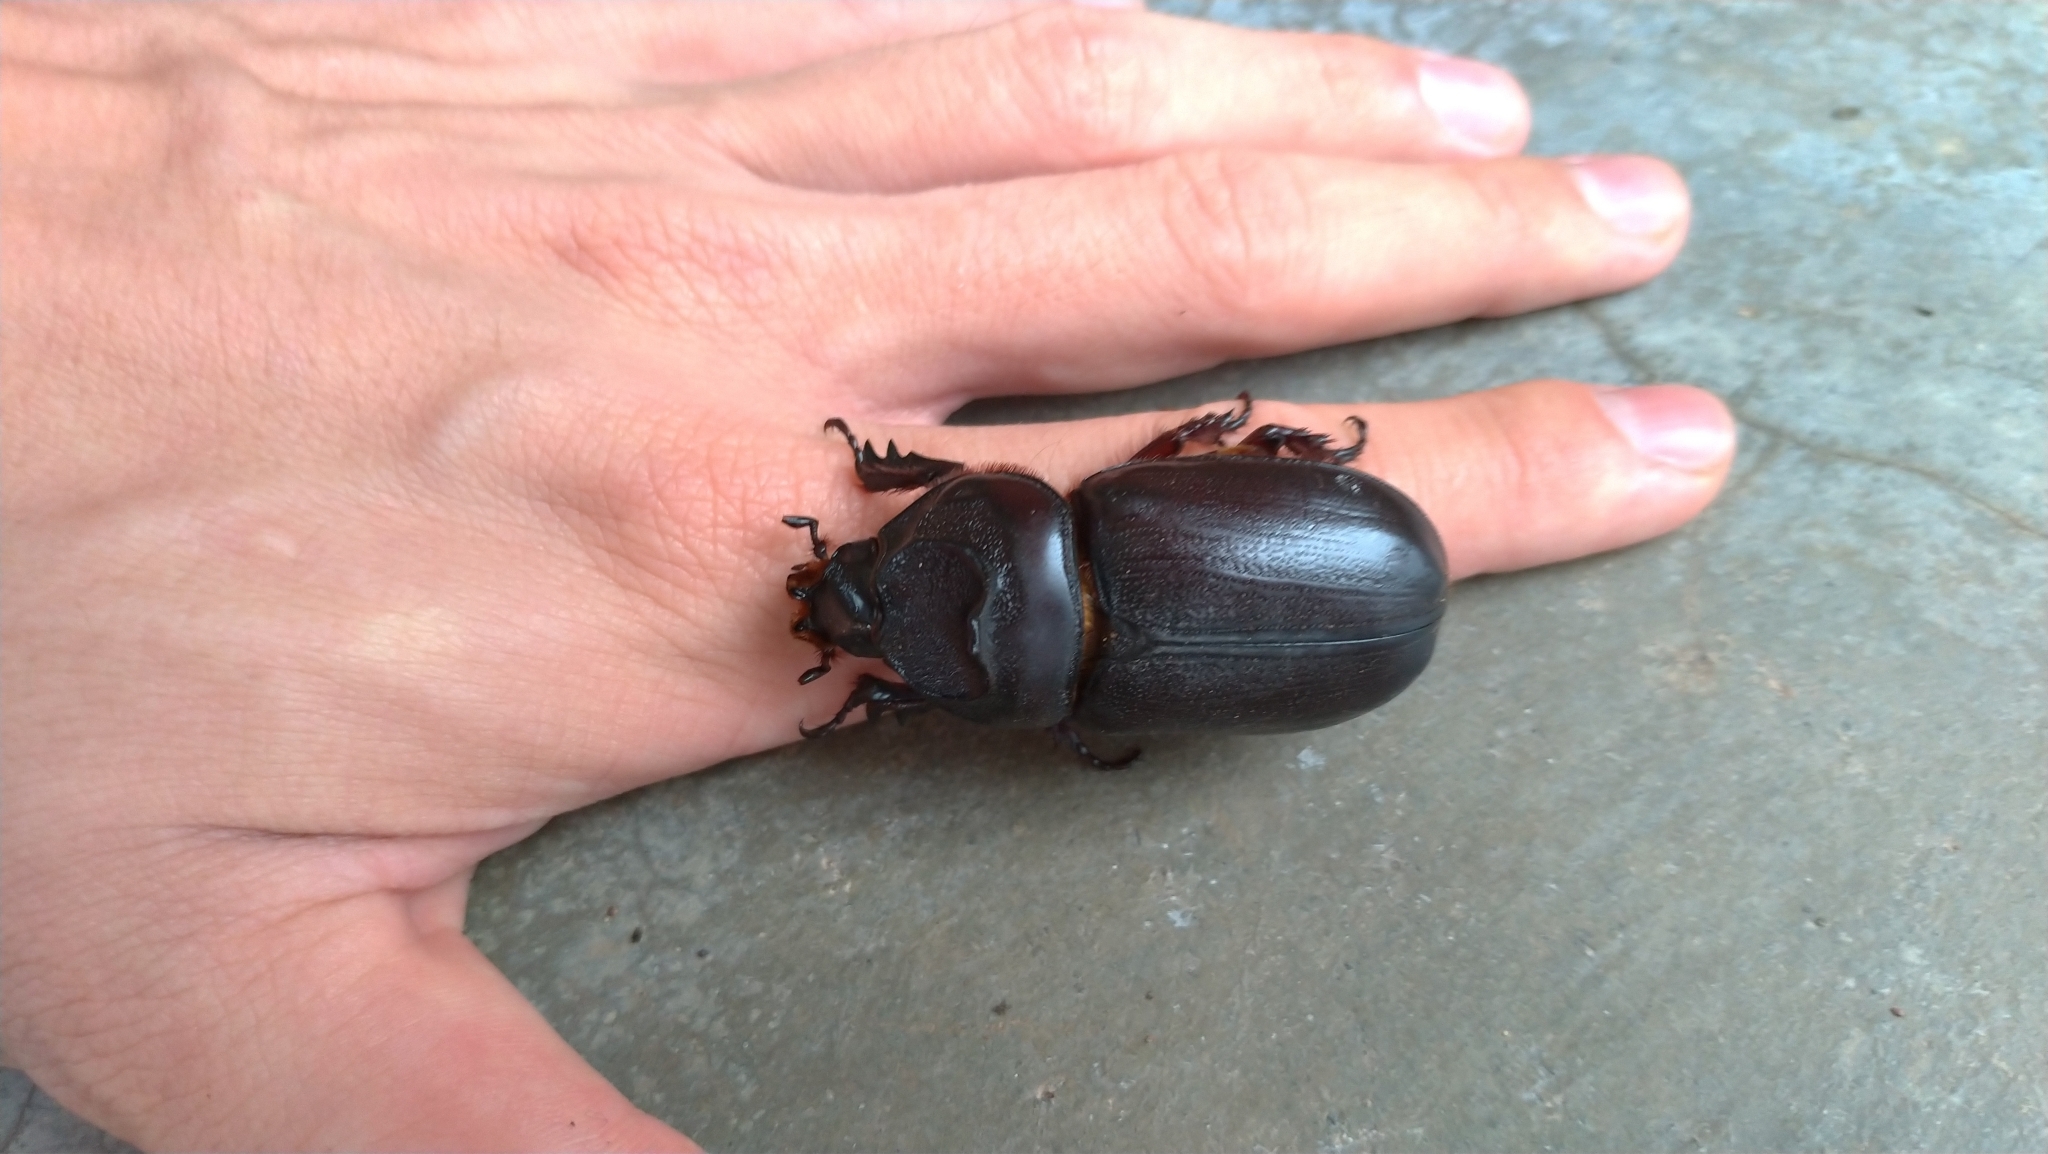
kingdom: Animalia
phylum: Arthropoda
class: Insecta
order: Coleoptera
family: Scarabaeidae
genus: Oryctes
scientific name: Oryctes rhinoceros
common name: Coconut rhinoceros beetle
